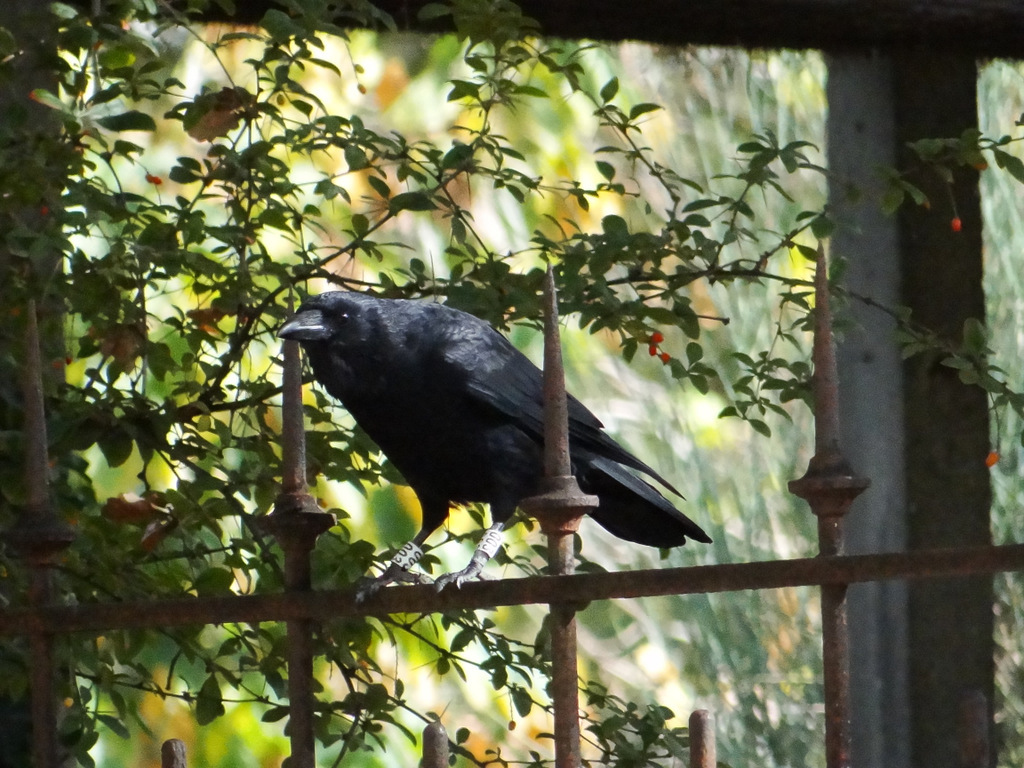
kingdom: Animalia
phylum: Chordata
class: Aves
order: Passeriformes
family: Corvidae
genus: Corvus
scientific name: Corvus corone
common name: Carrion crow
